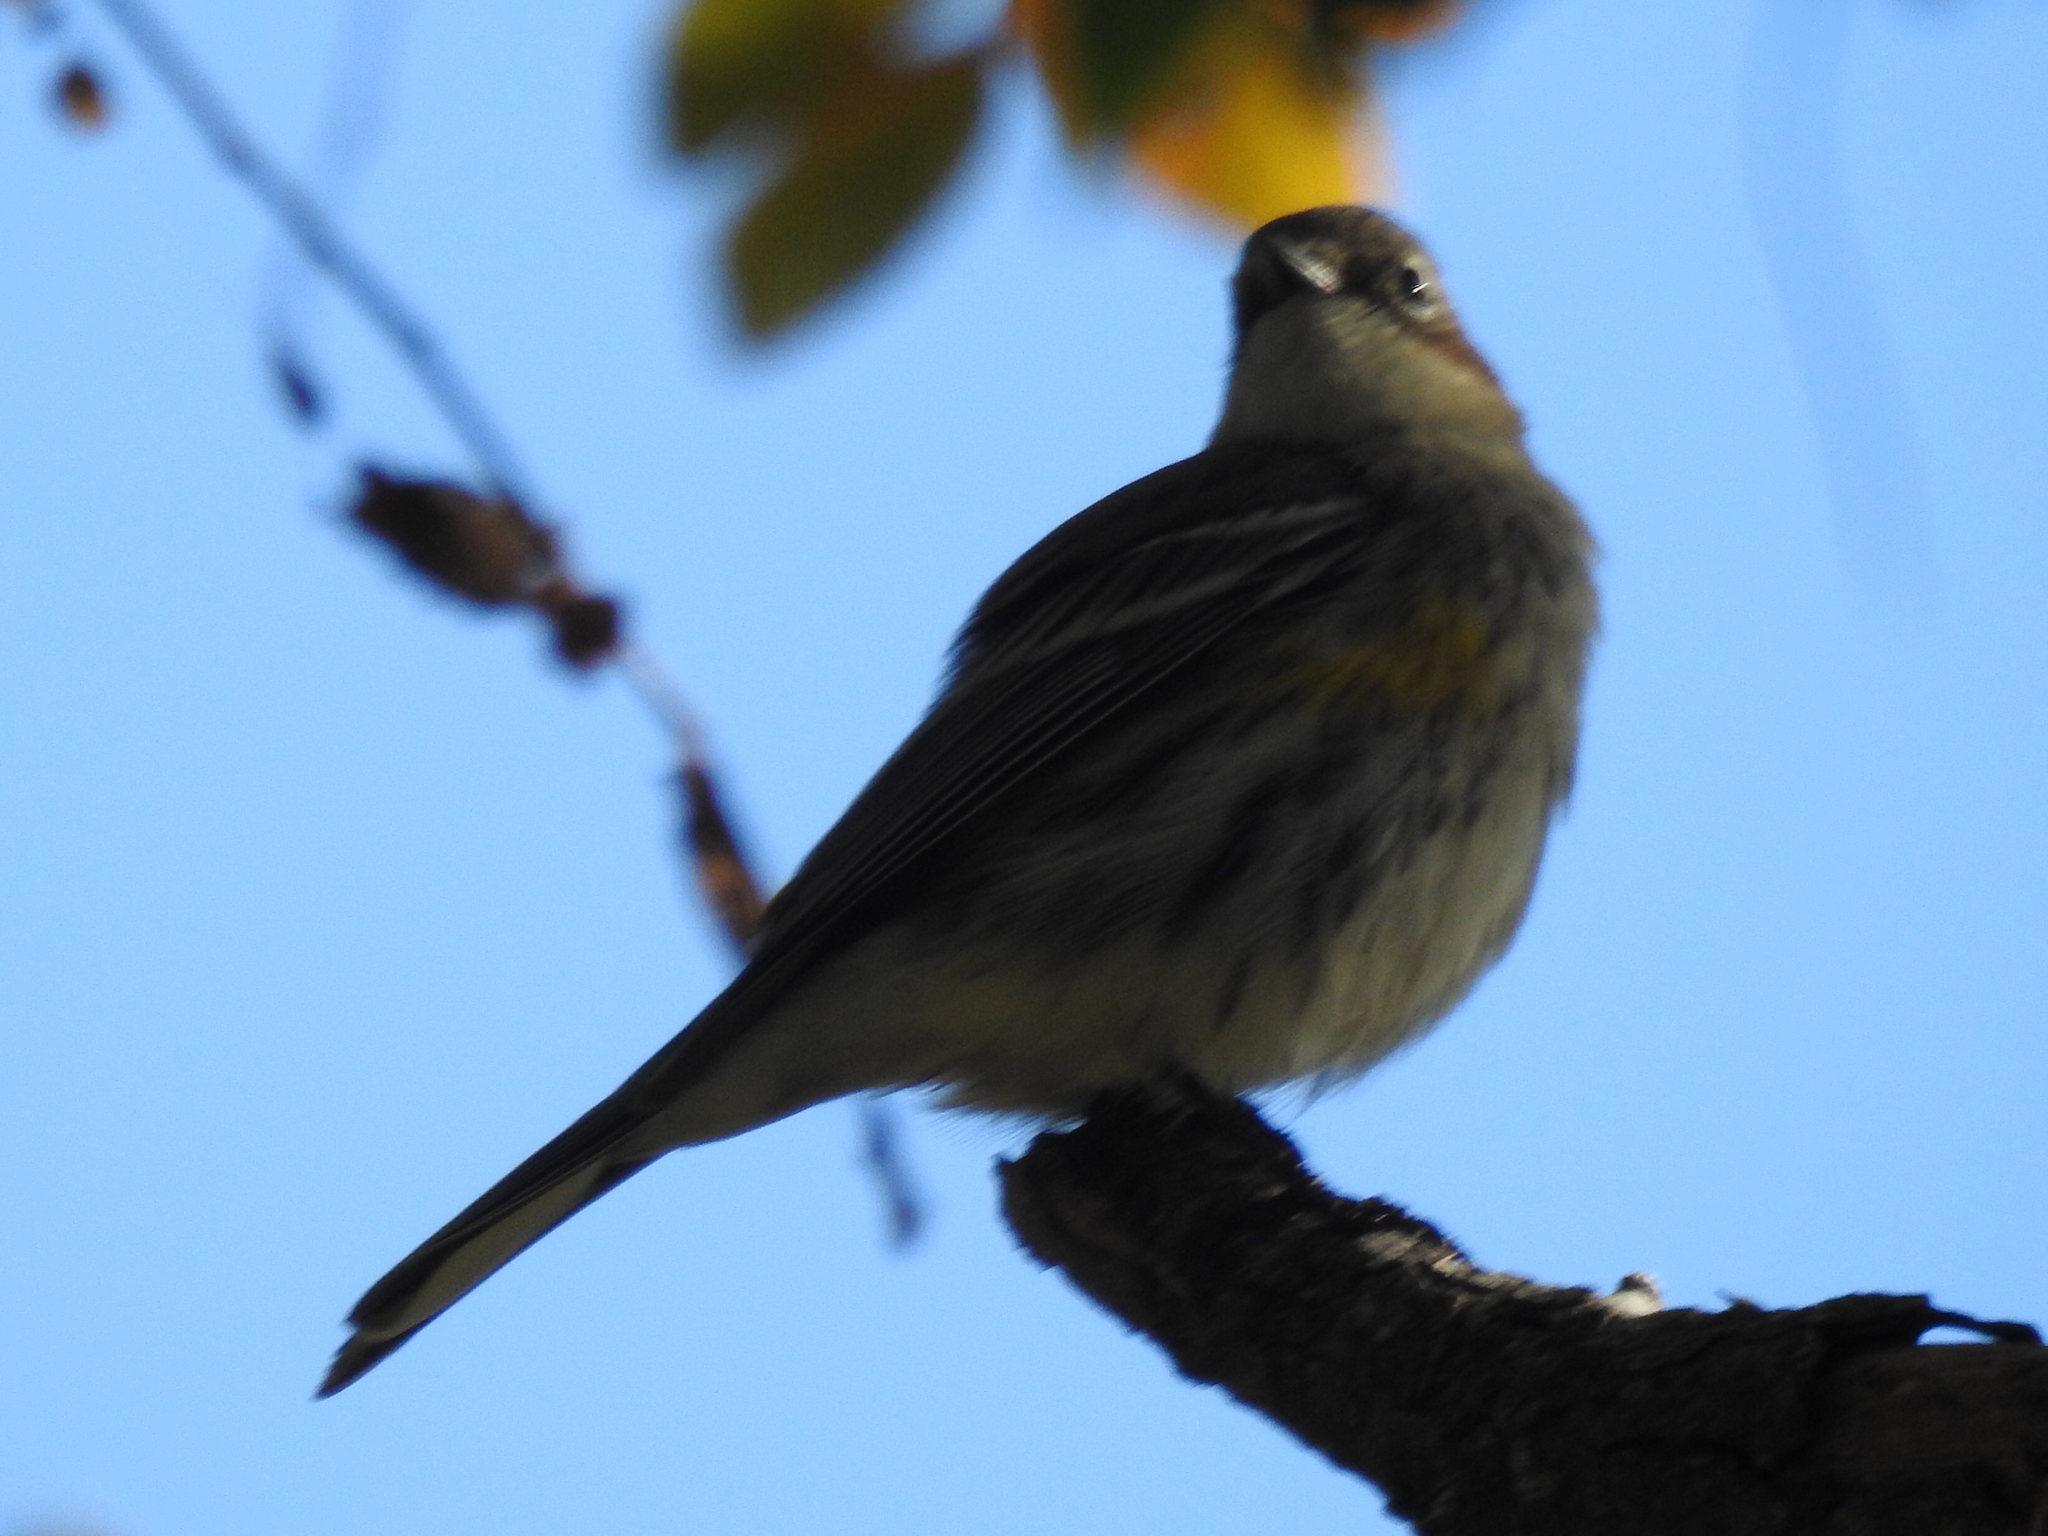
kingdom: Animalia
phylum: Chordata
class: Aves
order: Passeriformes
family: Parulidae
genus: Setophaga
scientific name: Setophaga coronata
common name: Myrtle warbler
